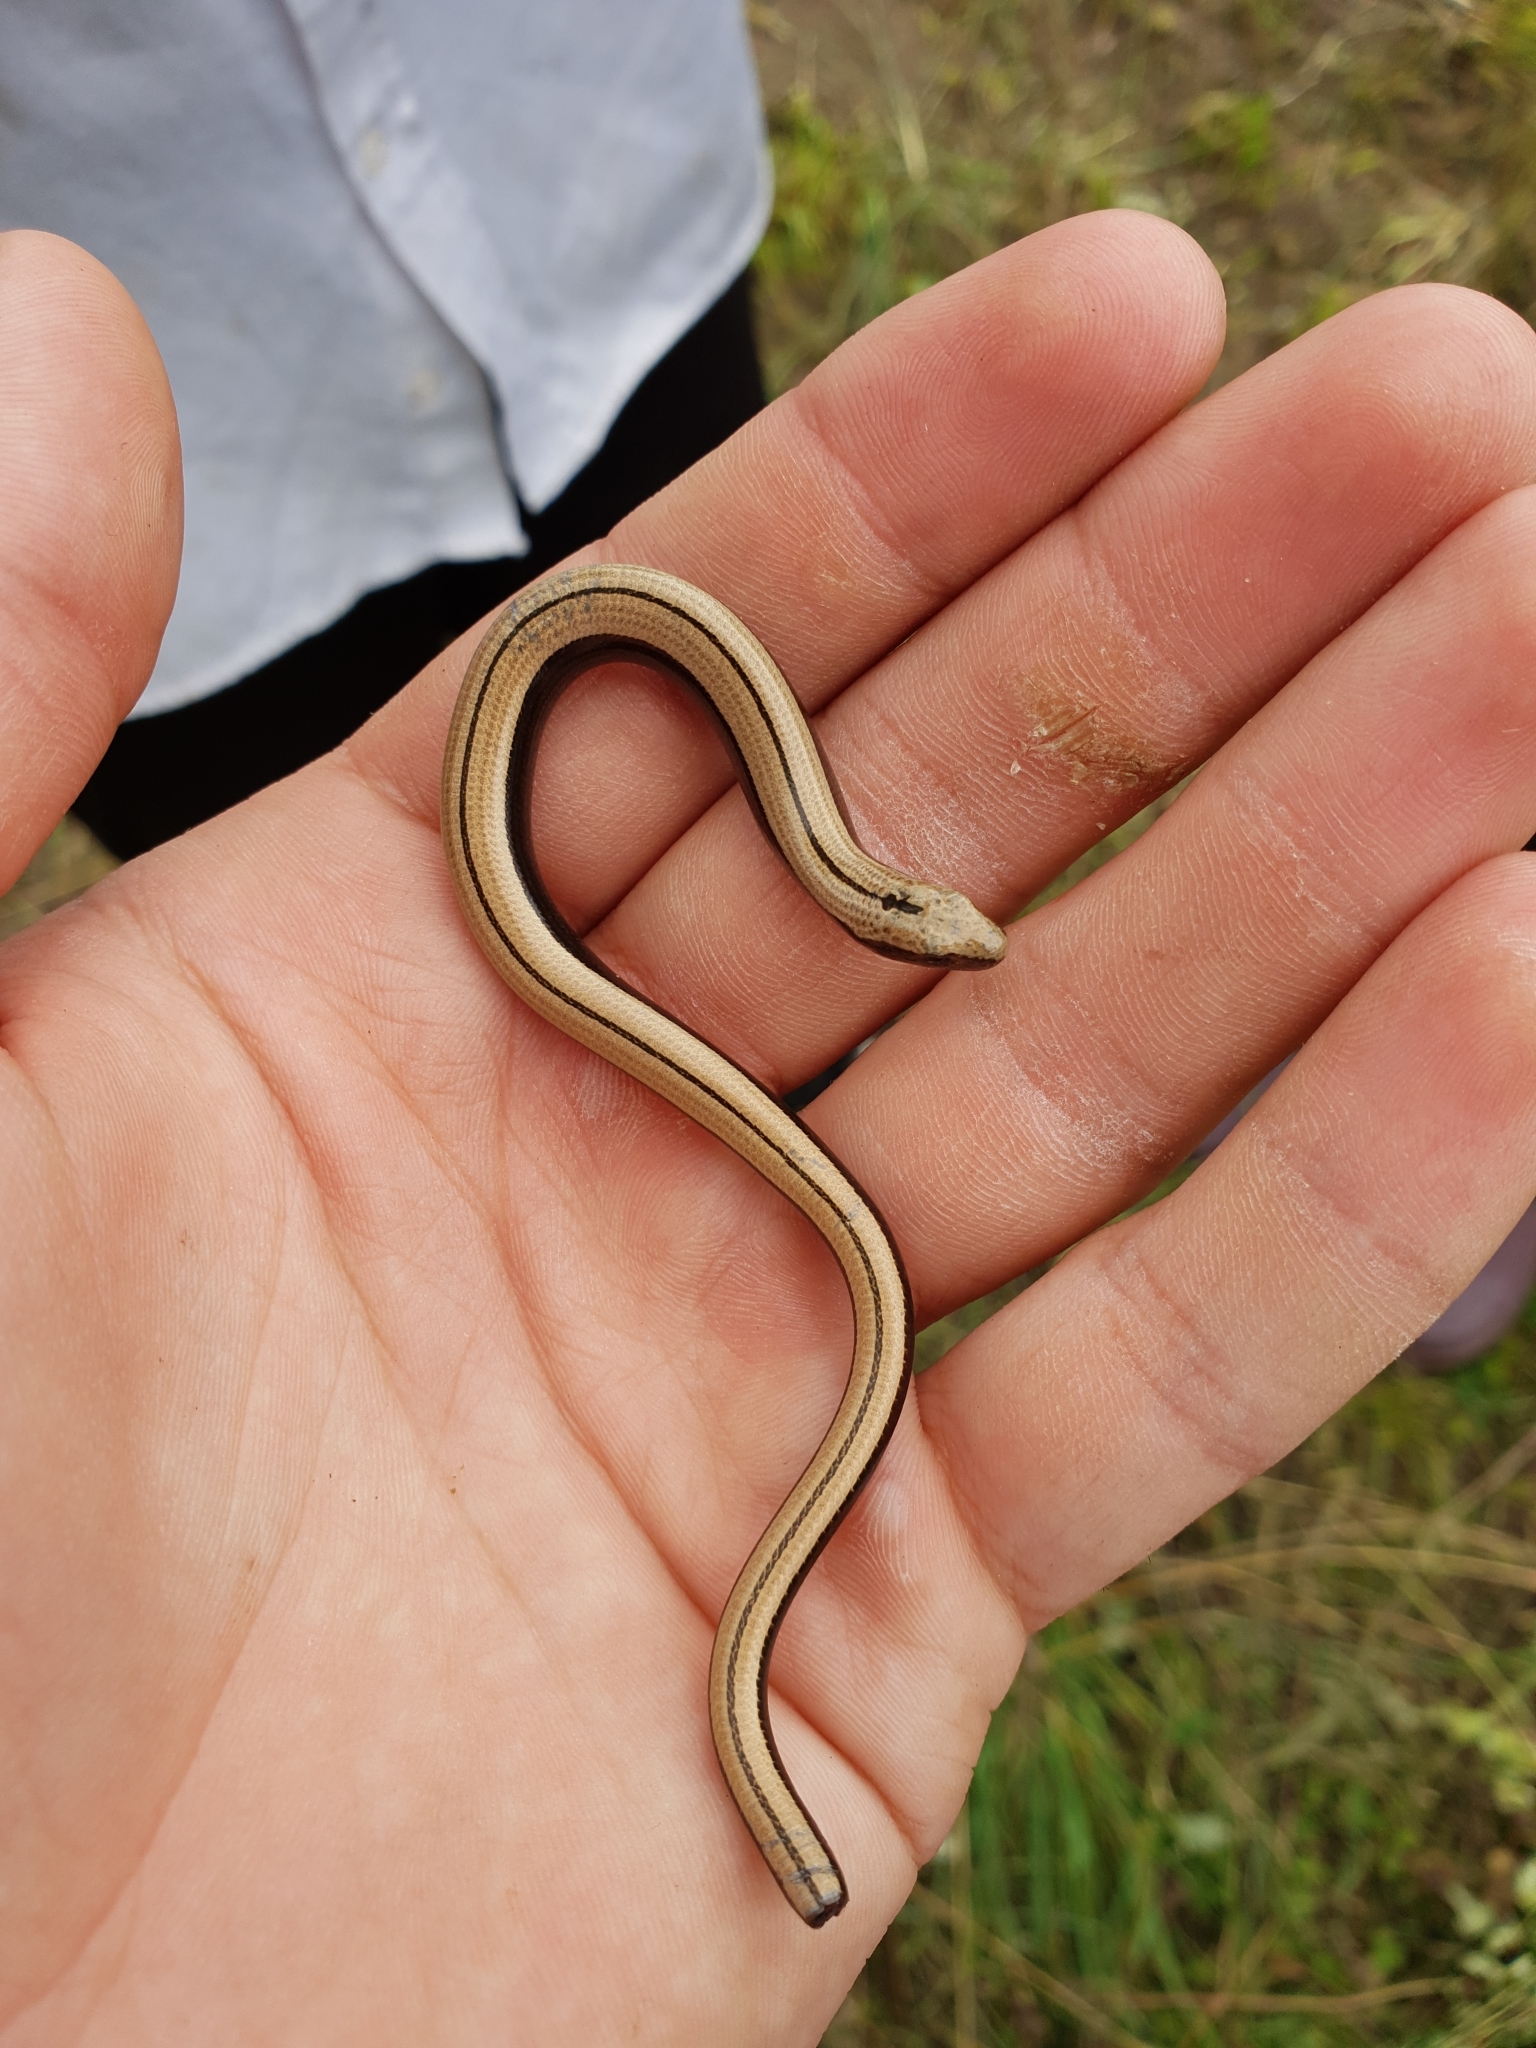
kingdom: Animalia
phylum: Chordata
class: Squamata
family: Anguidae
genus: Anguis
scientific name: Anguis colchica
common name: Slow worm
